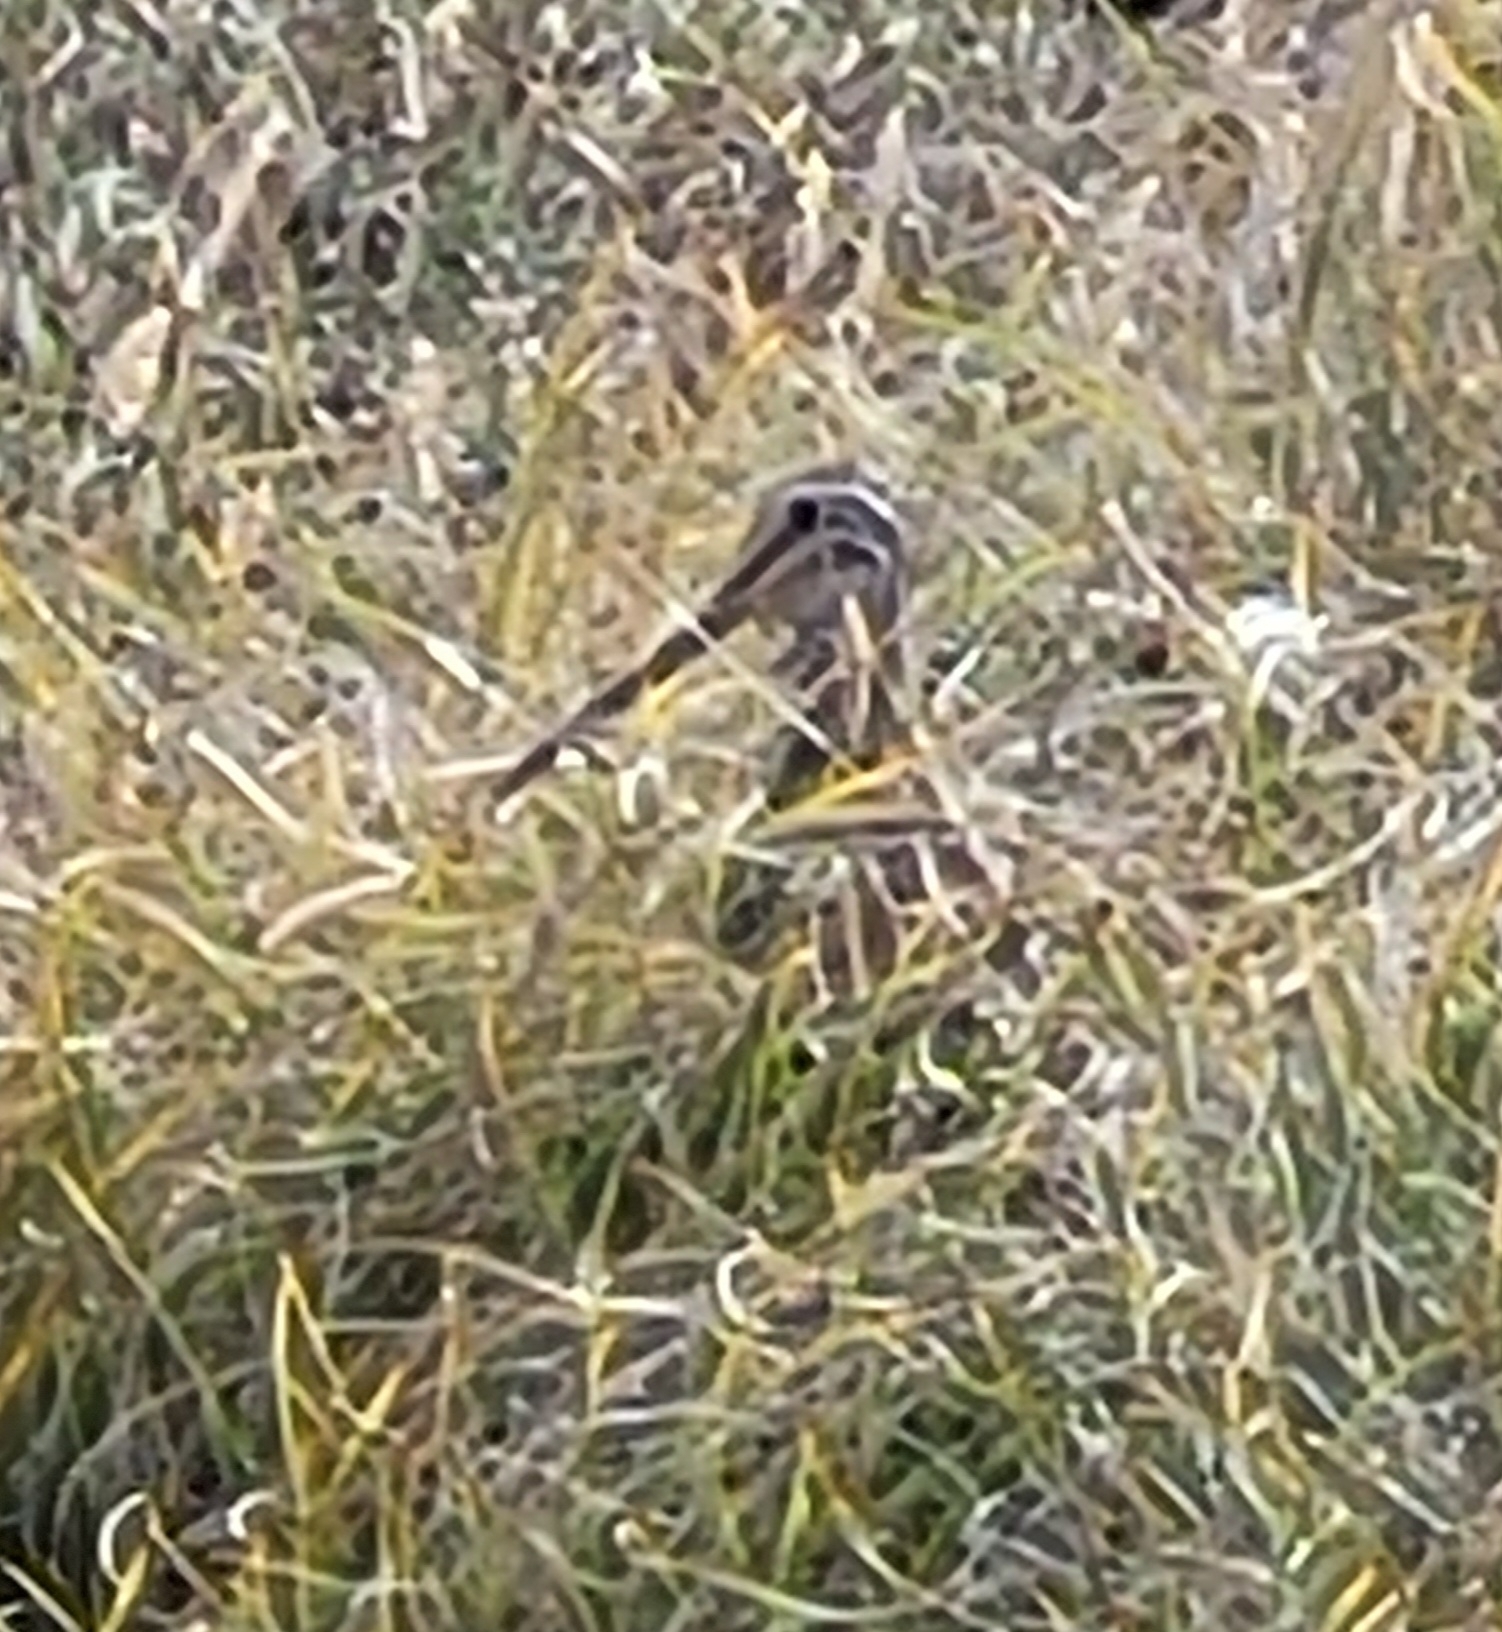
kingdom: Animalia
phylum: Chordata
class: Aves
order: Charadriiformes
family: Scolopacidae
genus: Gallinago
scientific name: Gallinago magellanica
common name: Magellanic snipe
